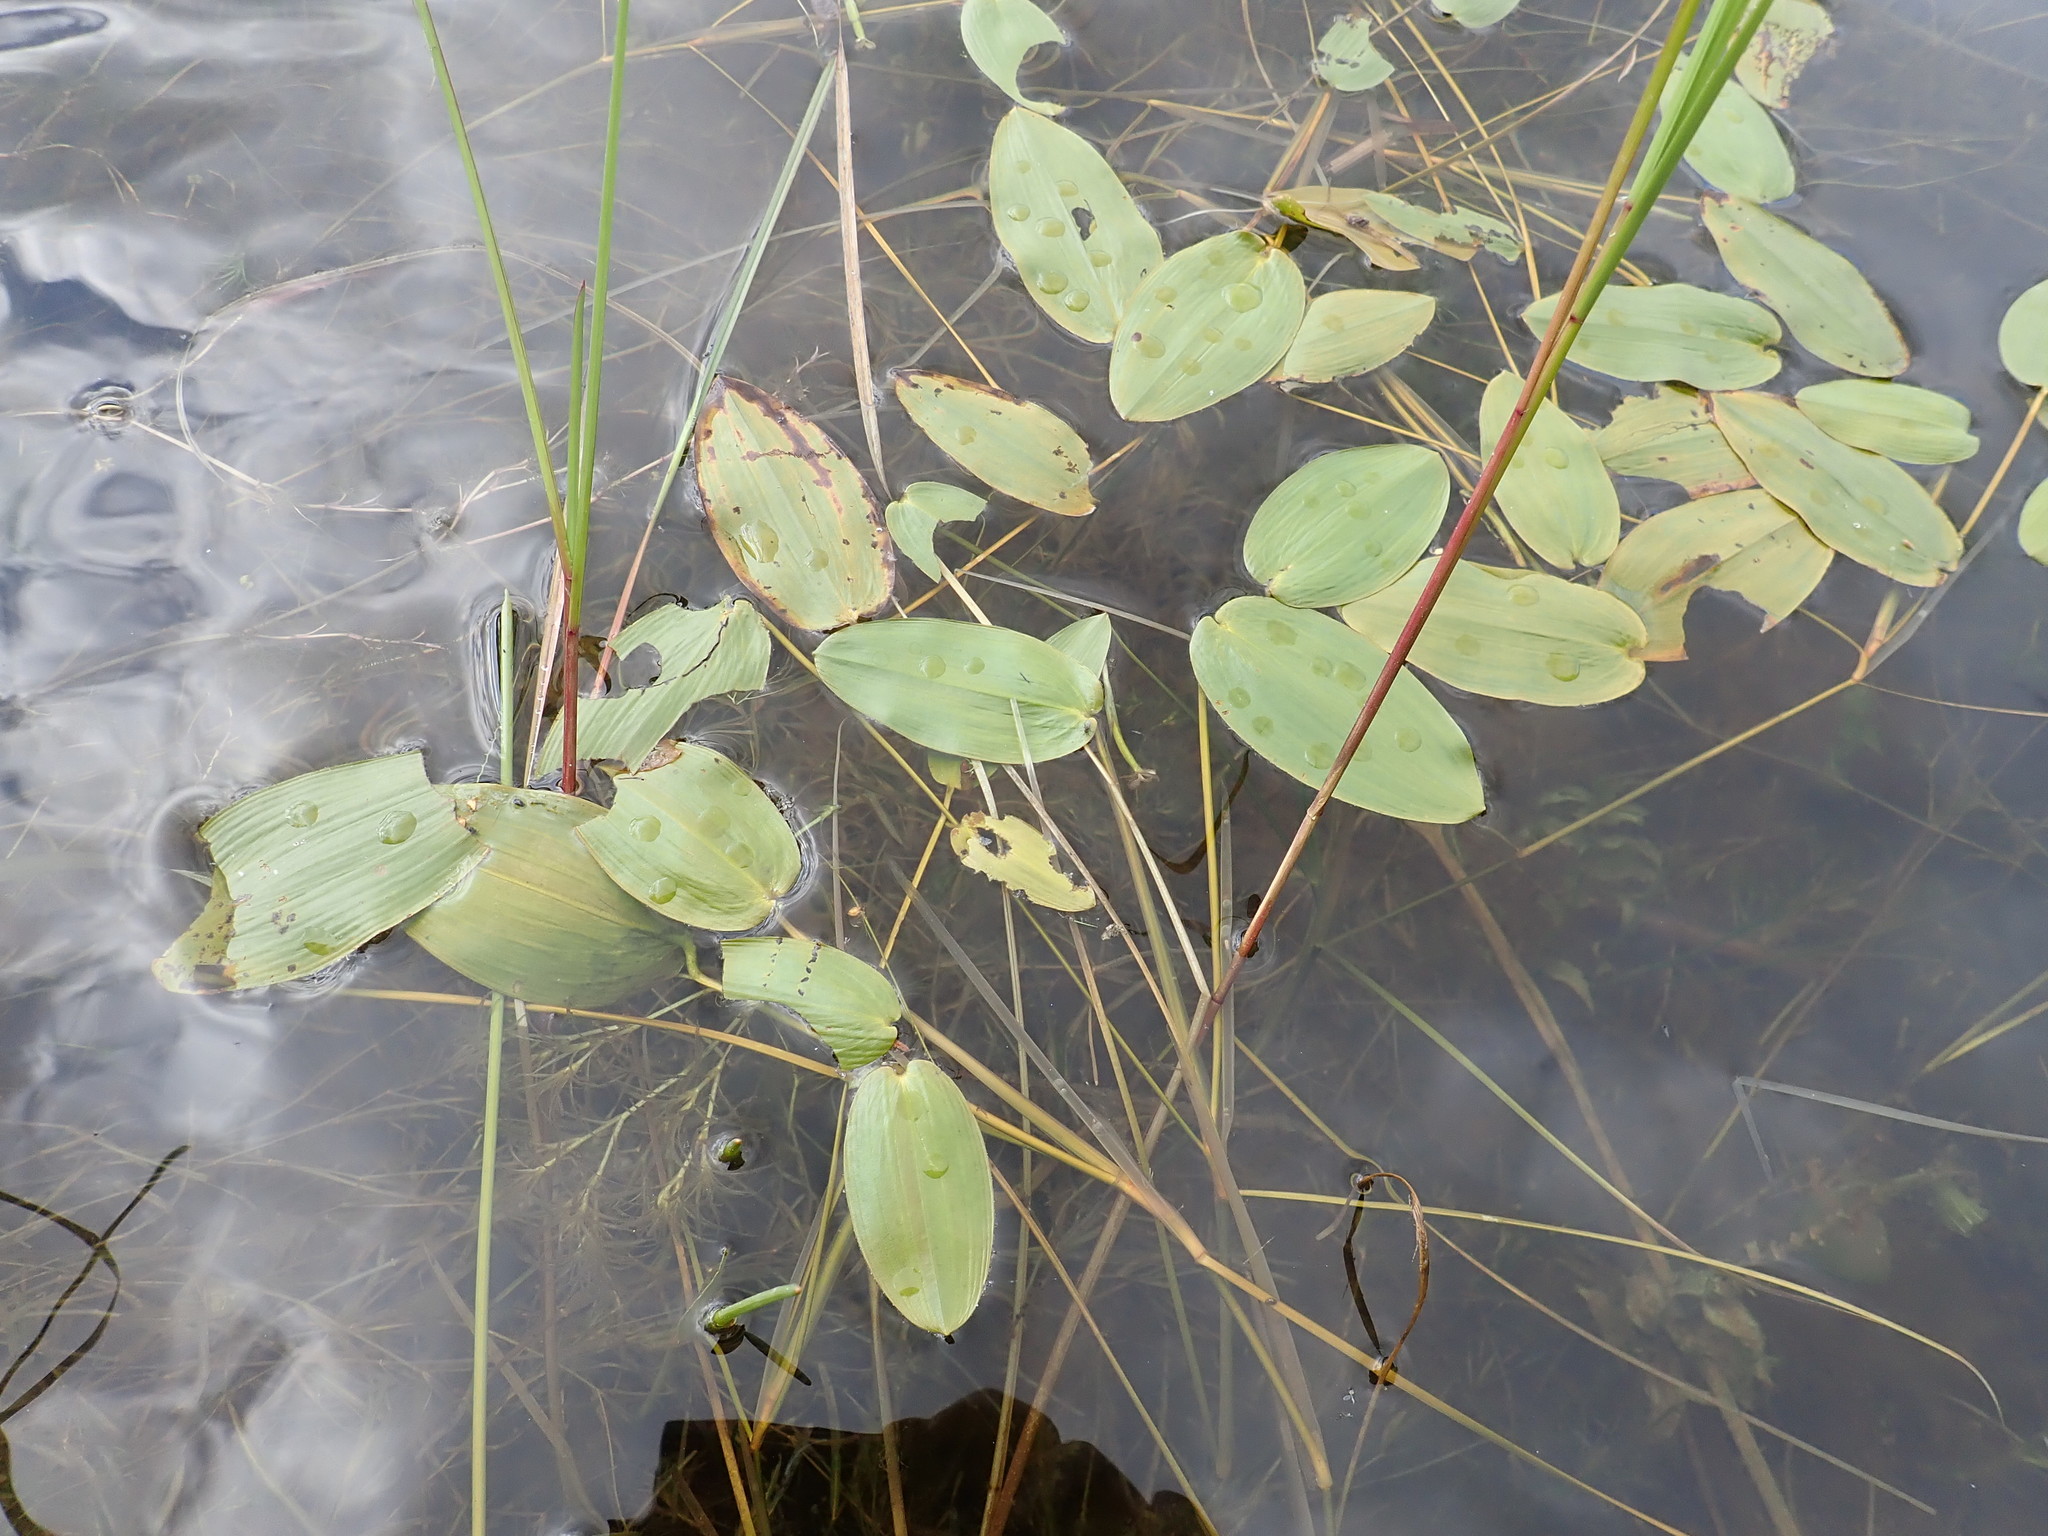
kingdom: Plantae
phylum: Tracheophyta
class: Liliopsida
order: Alismatales
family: Potamogetonaceae
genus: Potamogeton
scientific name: Potamogeton natans
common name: Broad-leaved pondweed
